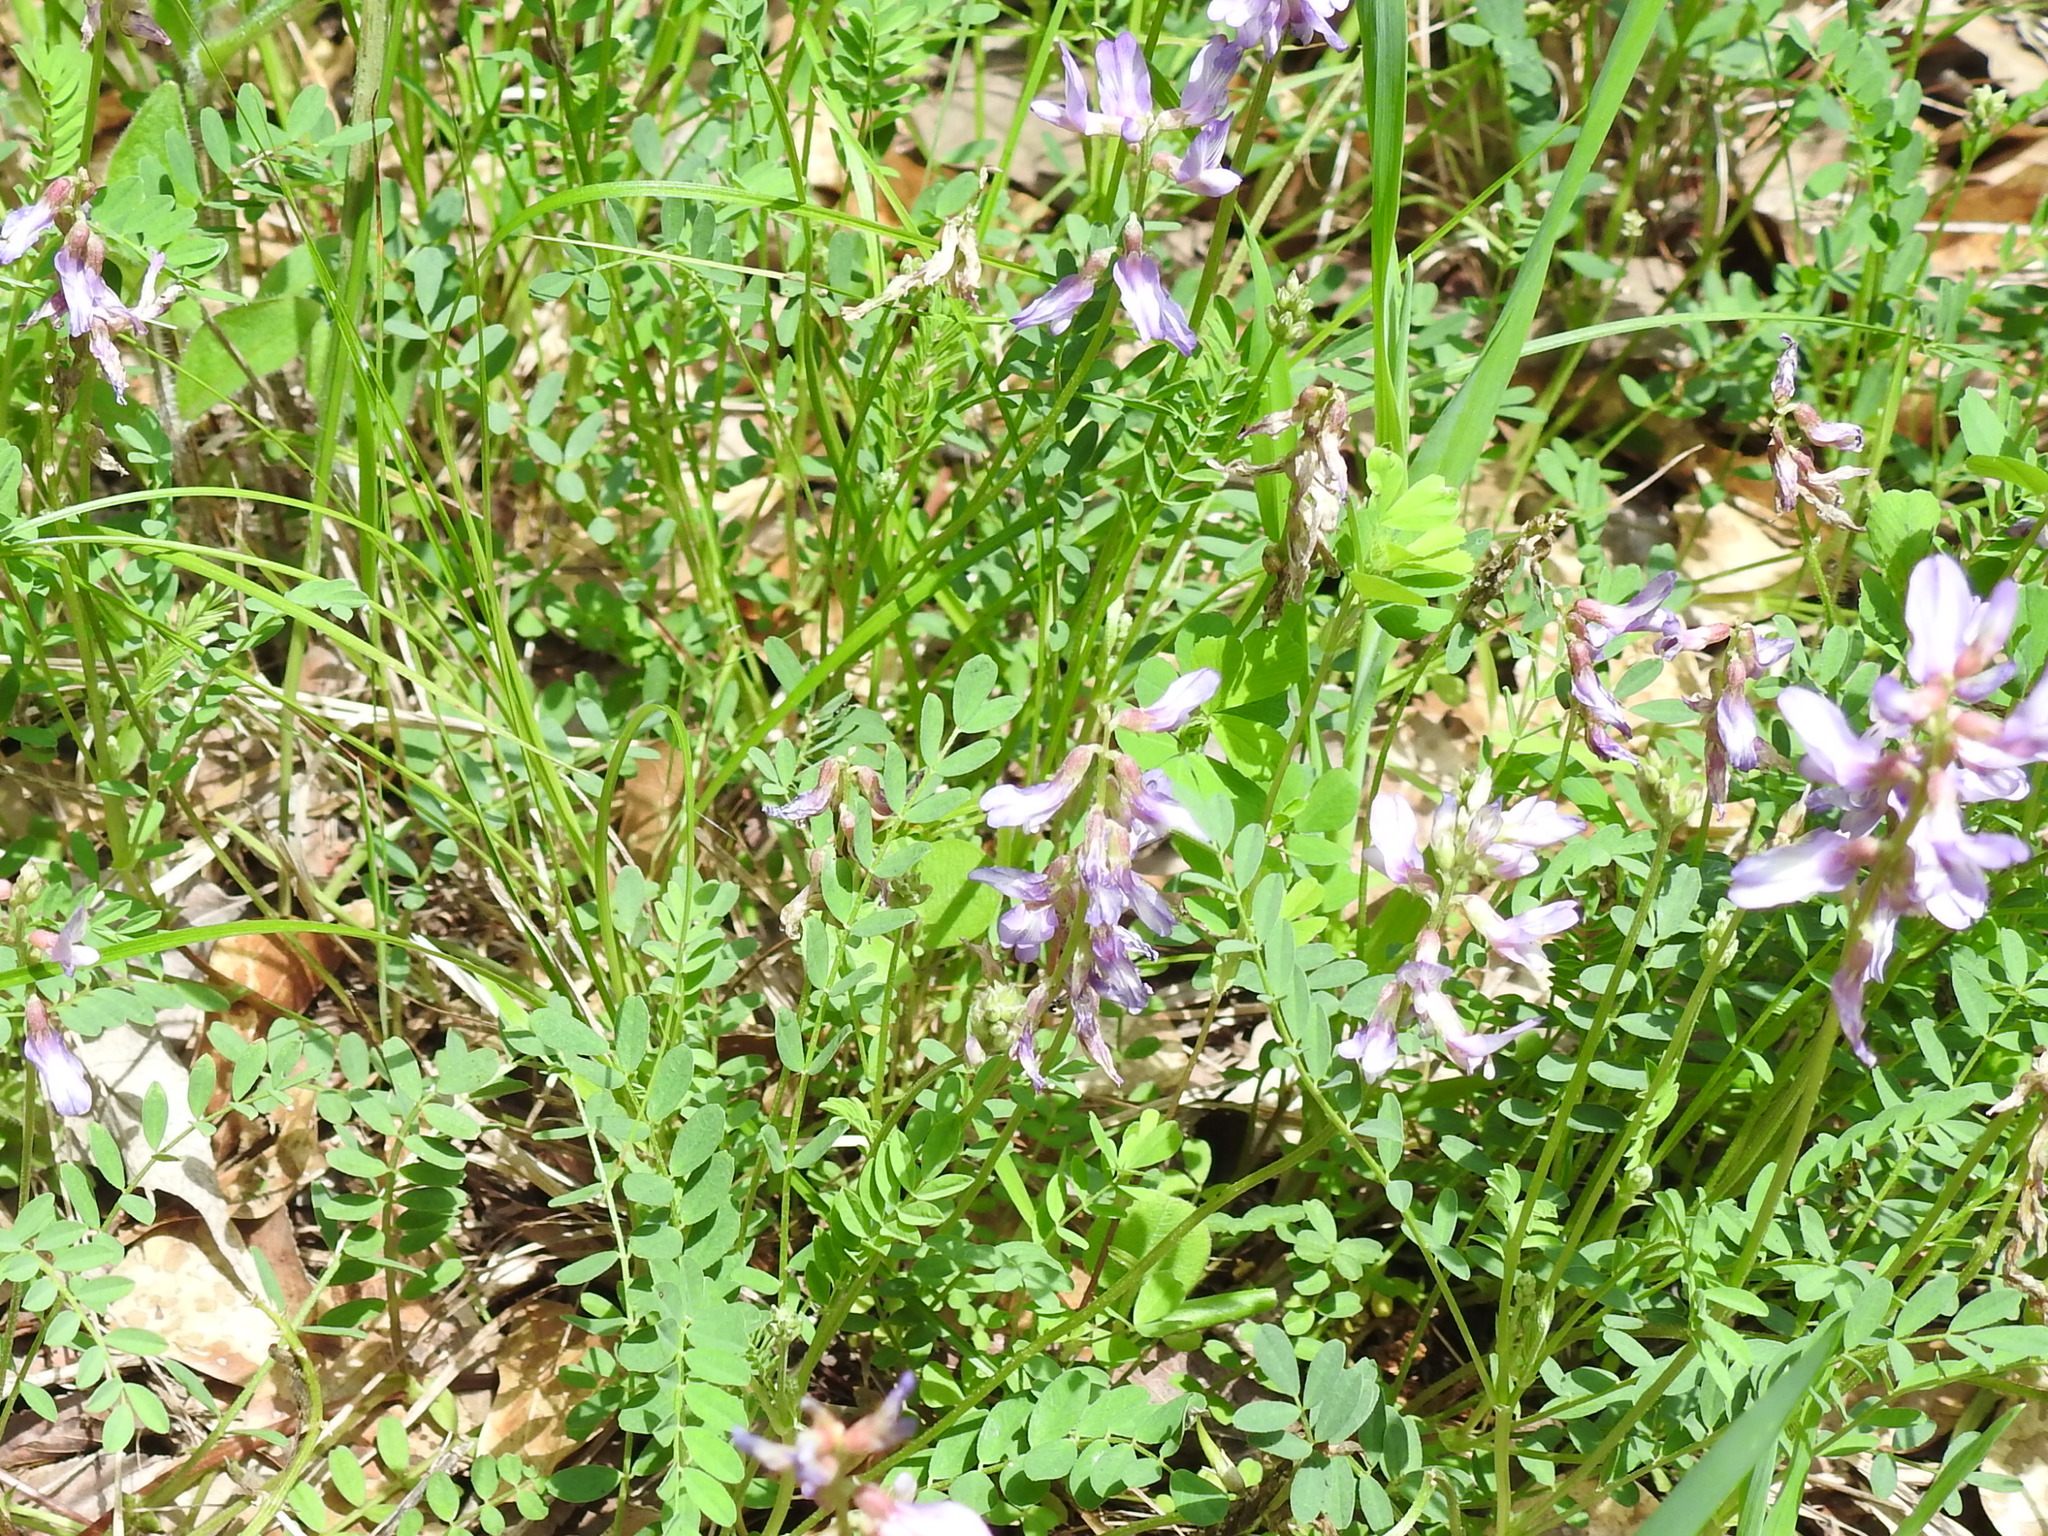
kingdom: Plantae
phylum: Tracheophyta
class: Magnoliopsida
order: Fabales
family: Fabaceae
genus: Astragalus
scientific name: Astragalus distortus
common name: Ozark milk-vetch
